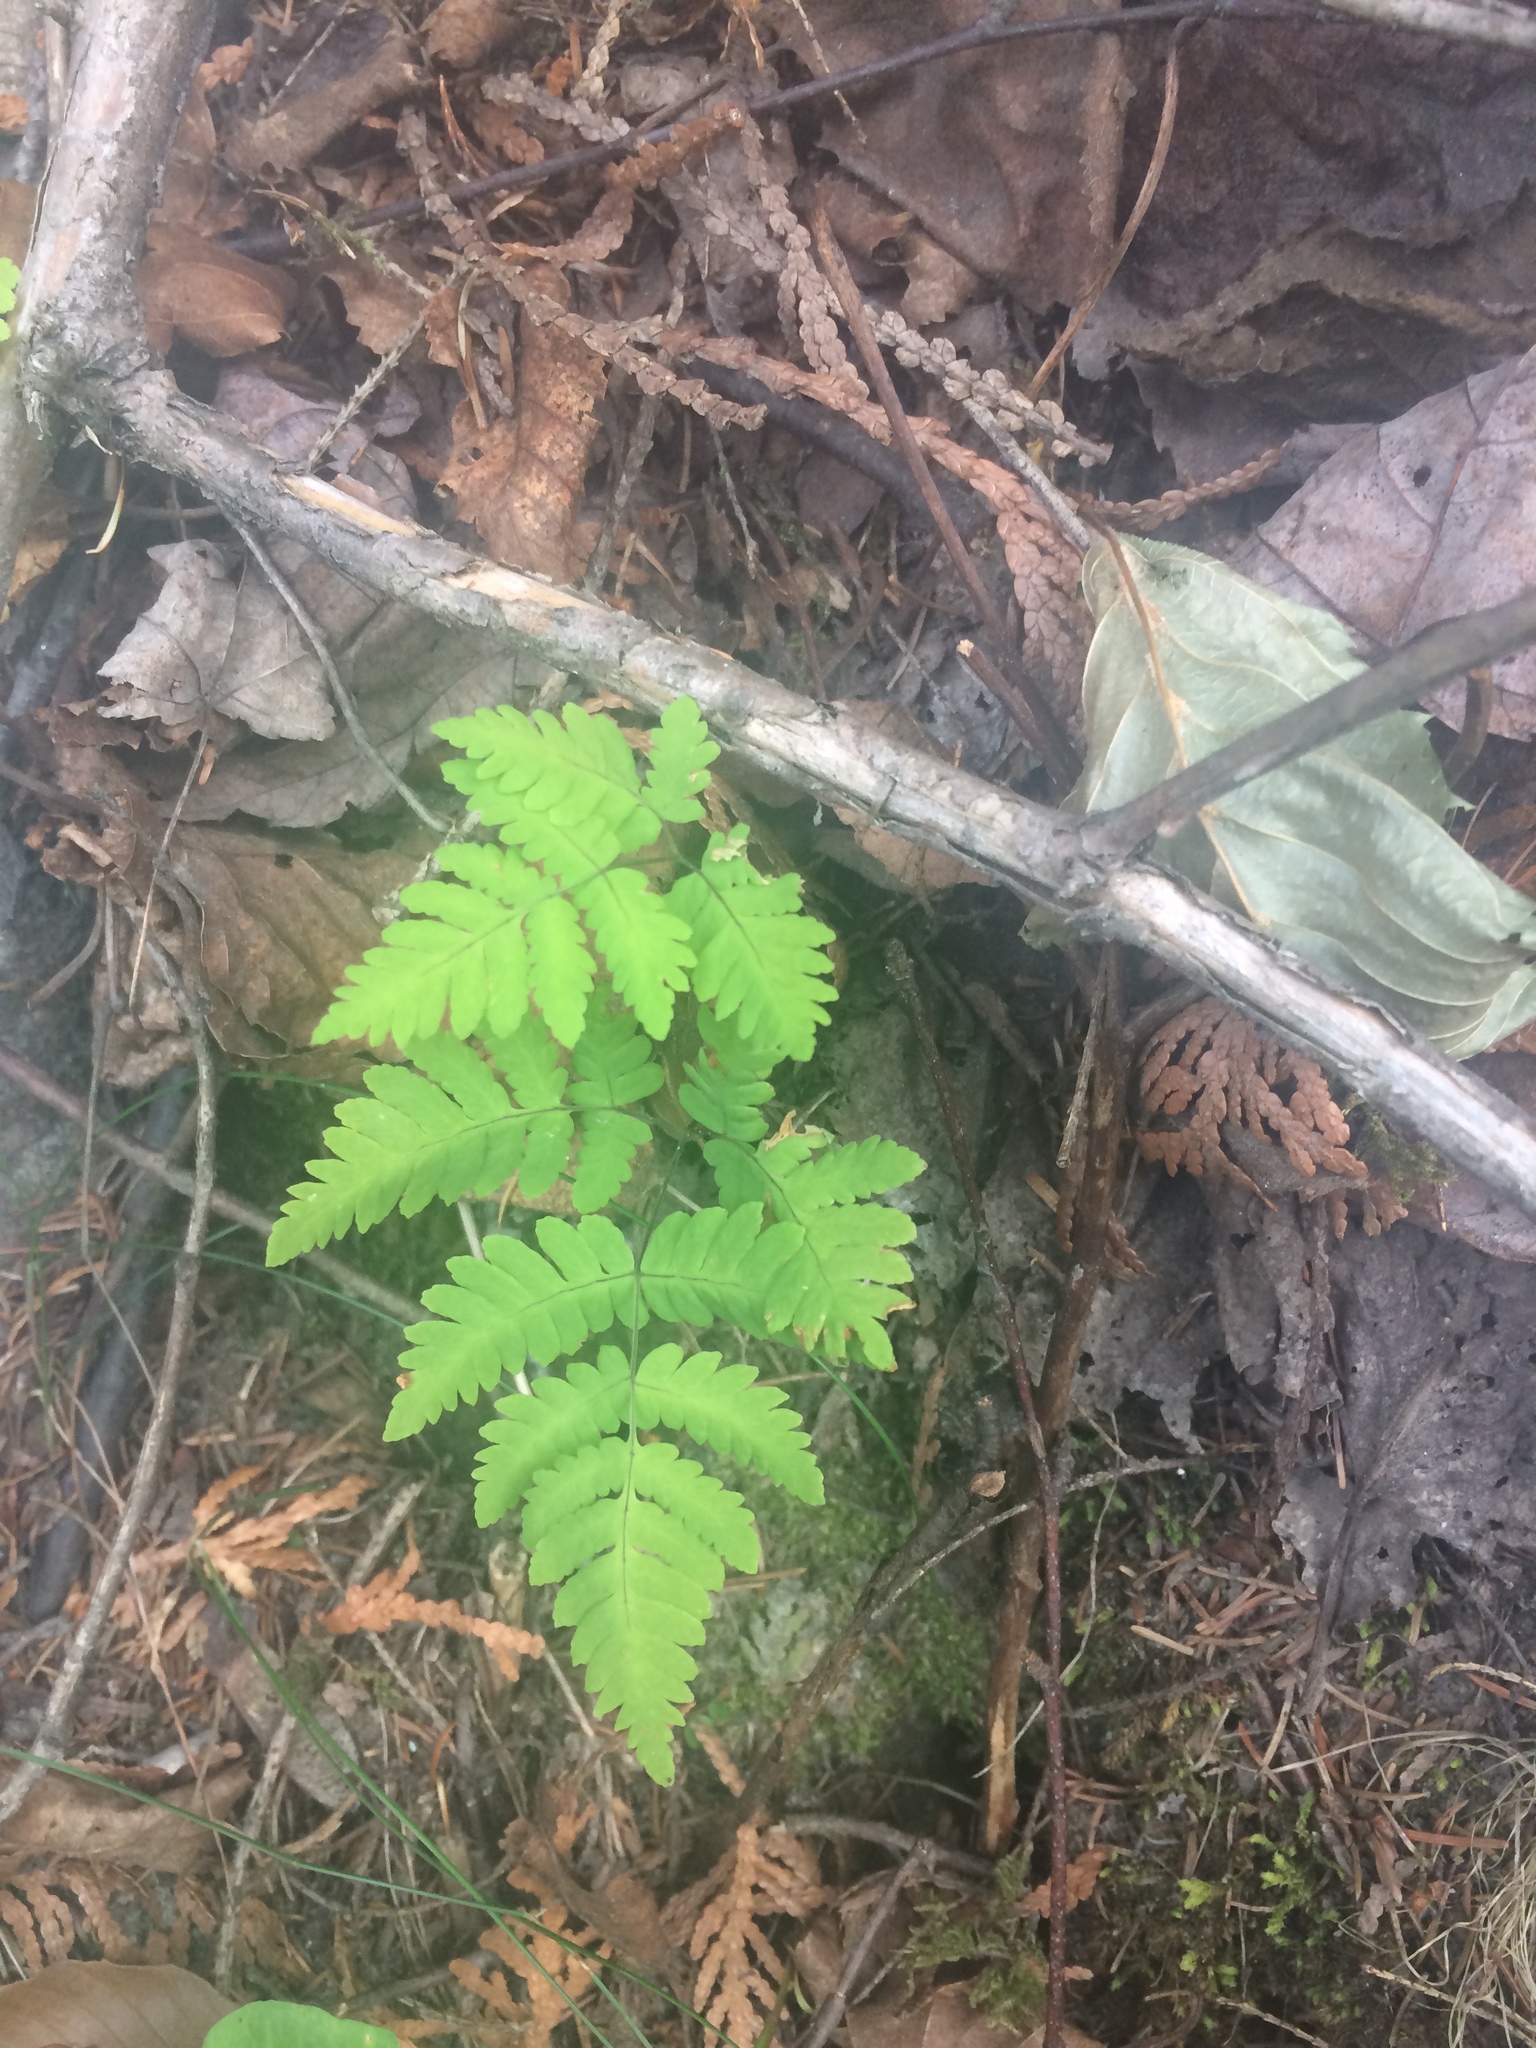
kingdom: Plantae
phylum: Tracheophyta
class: Polypodiopsida
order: Polypodiales
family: Cystopteridaceae
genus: Gymnocarpium
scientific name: Gymnocarpium dryopteris
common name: Oak fern
